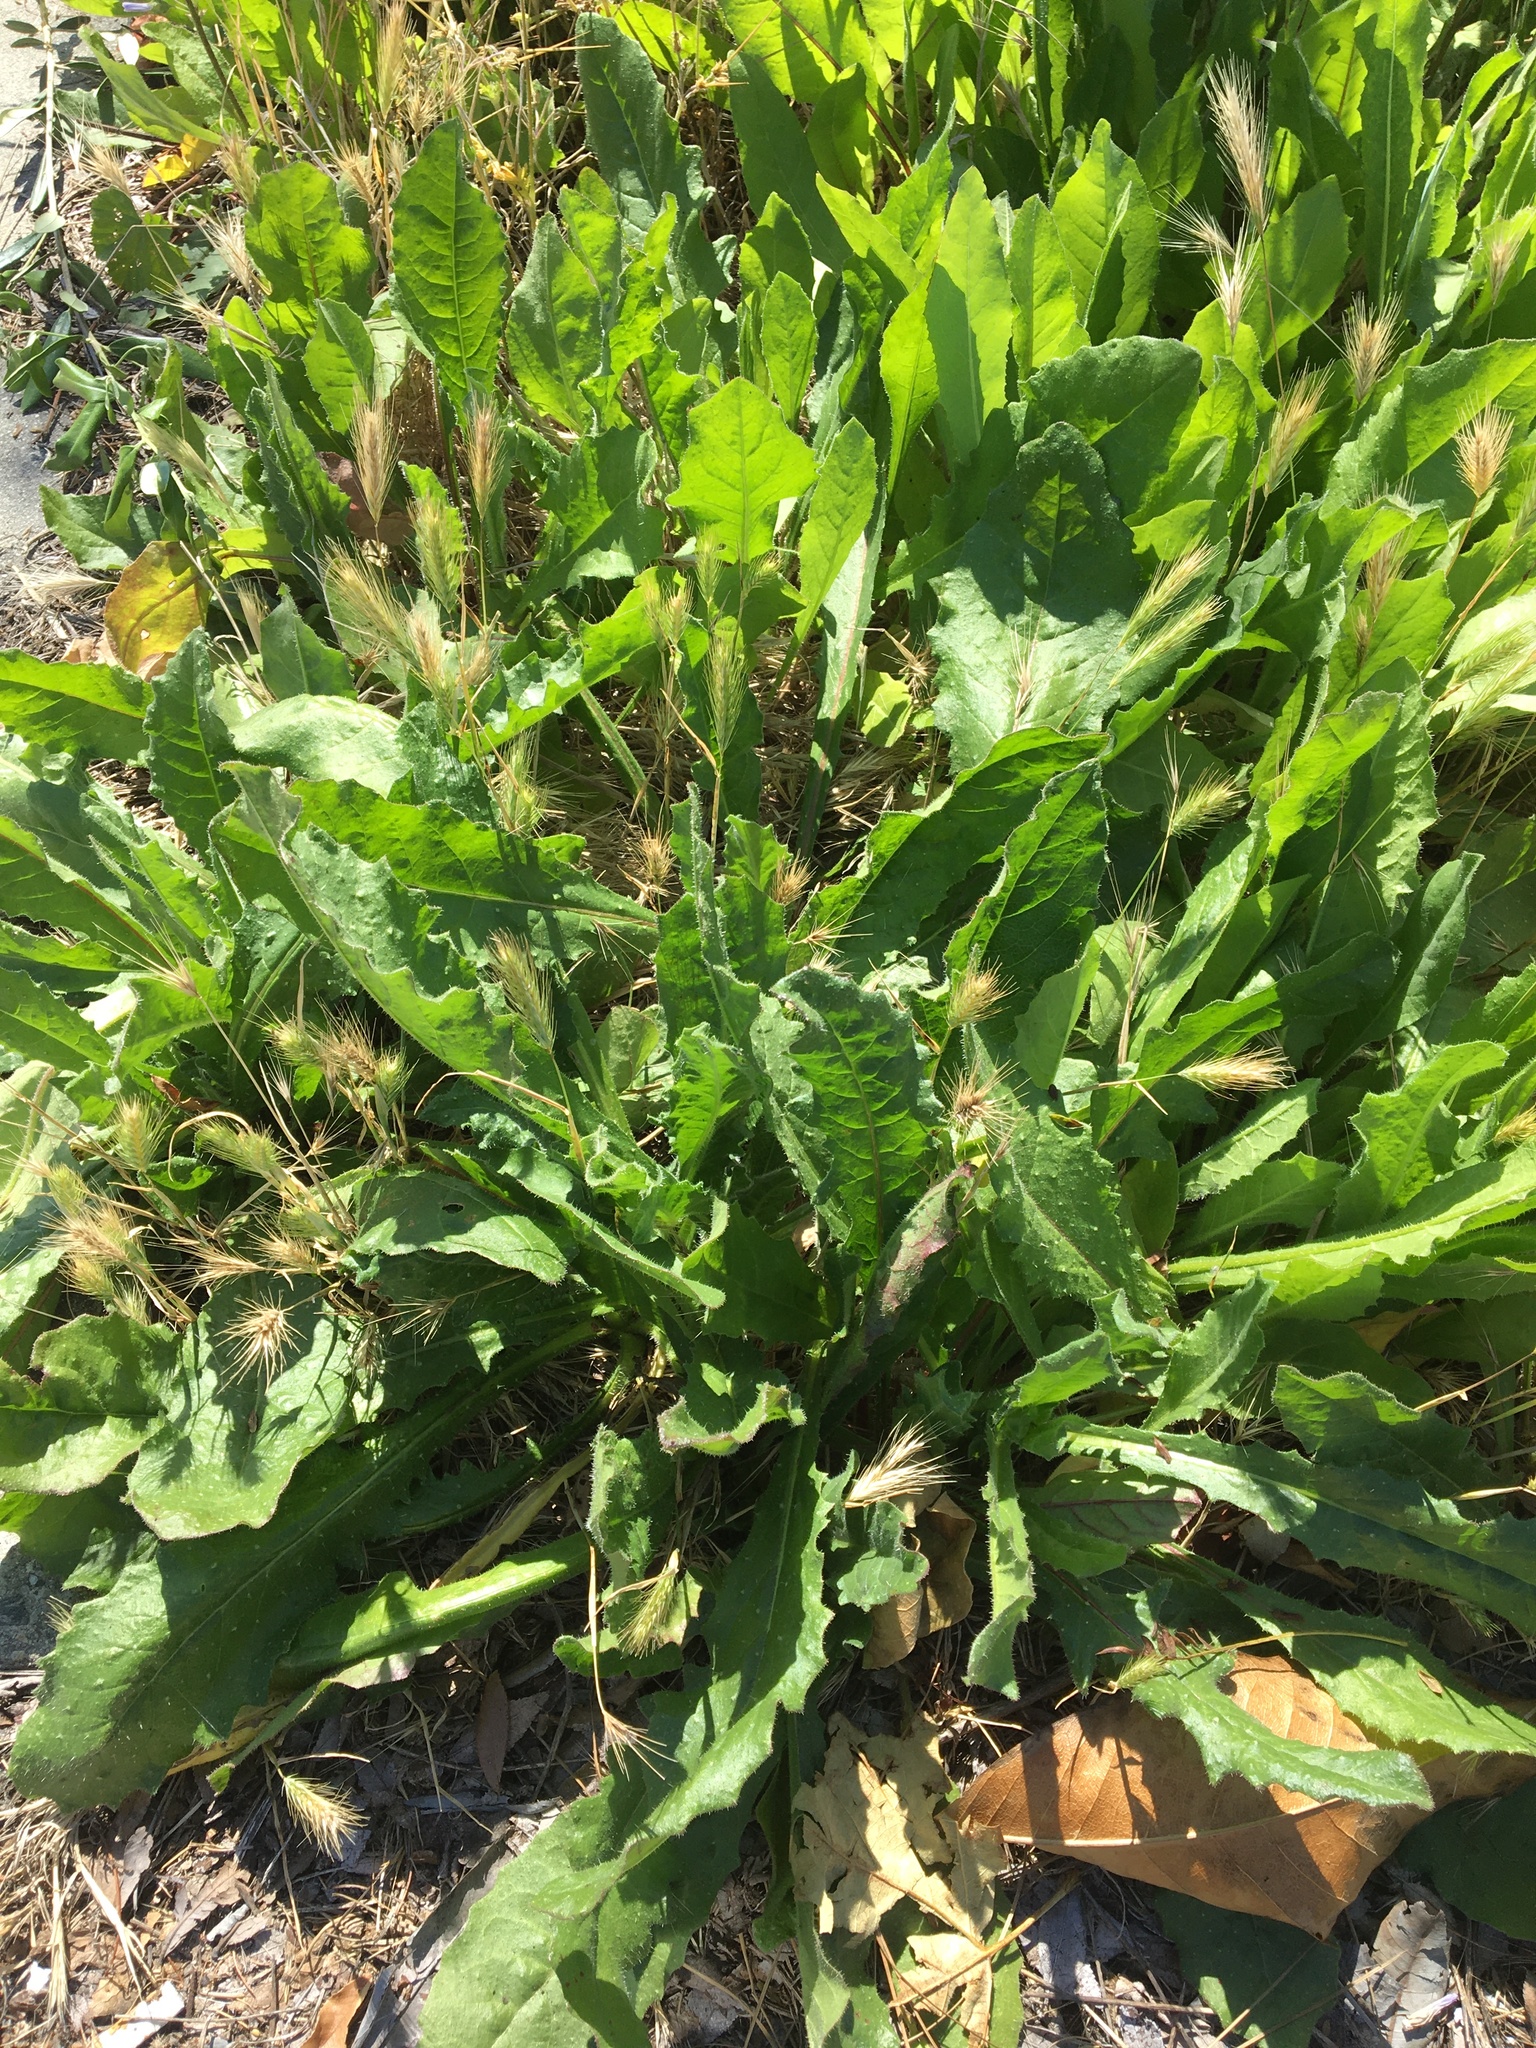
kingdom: Plantae
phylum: Tracheophyta
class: Magnoliopsida
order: Asterales
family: Asteraceae
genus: Helminthotheca
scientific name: Helminthotheca echioides
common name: Ox-tongue
